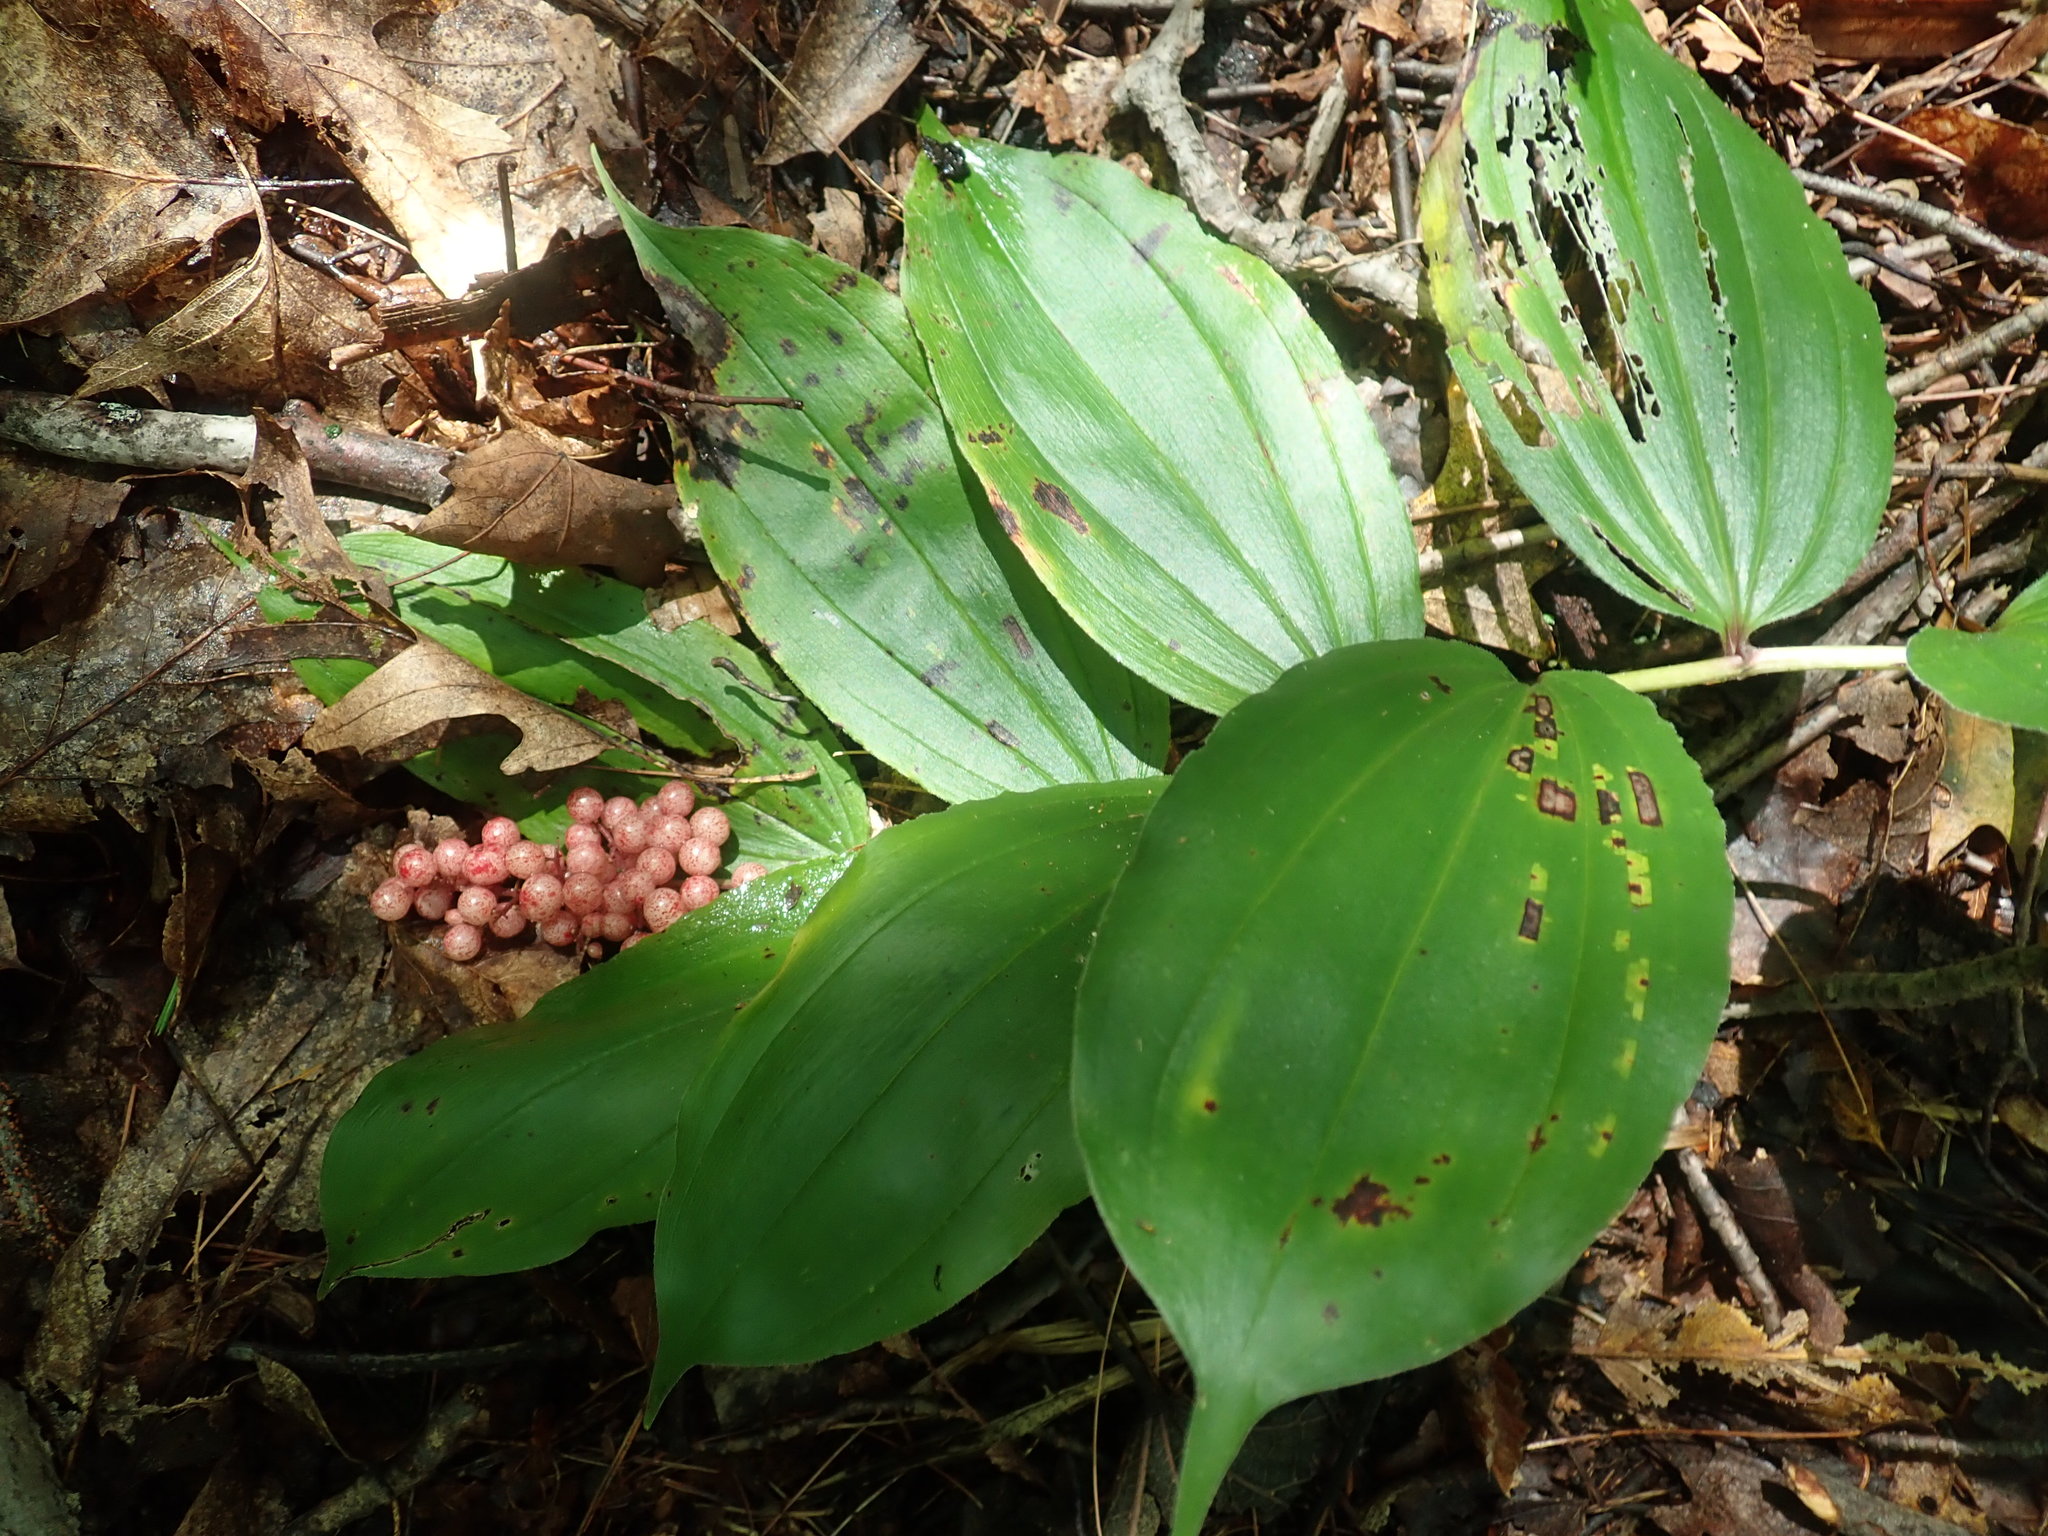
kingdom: Plantae
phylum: Tracheophyta
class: Liliopsida
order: Asparagales
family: Asparagaceae
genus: Maianthemum
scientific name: Maianthemum racemosum
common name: False spikenard
